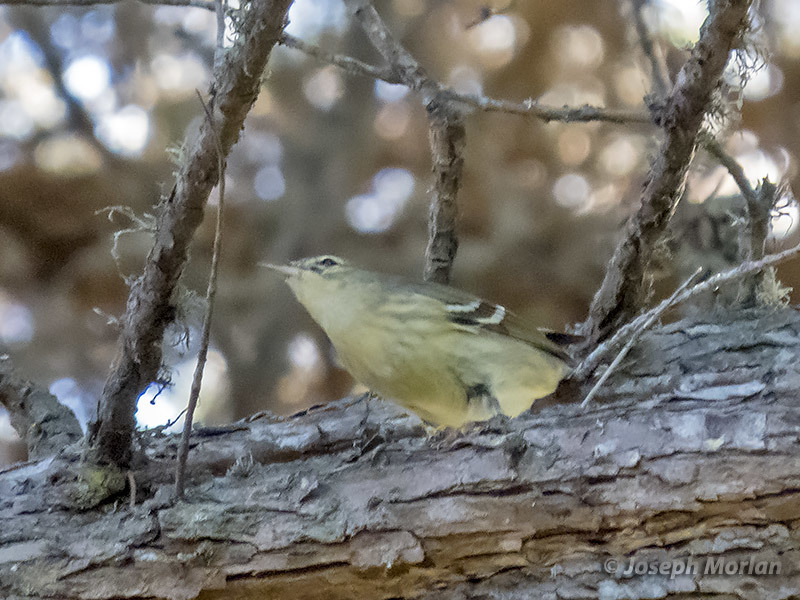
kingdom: Animalia
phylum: Chordata
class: Aves
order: Passeriformes
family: Parulidae
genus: Setophaga
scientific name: Setophaga striata
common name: Blackpoll warbler
